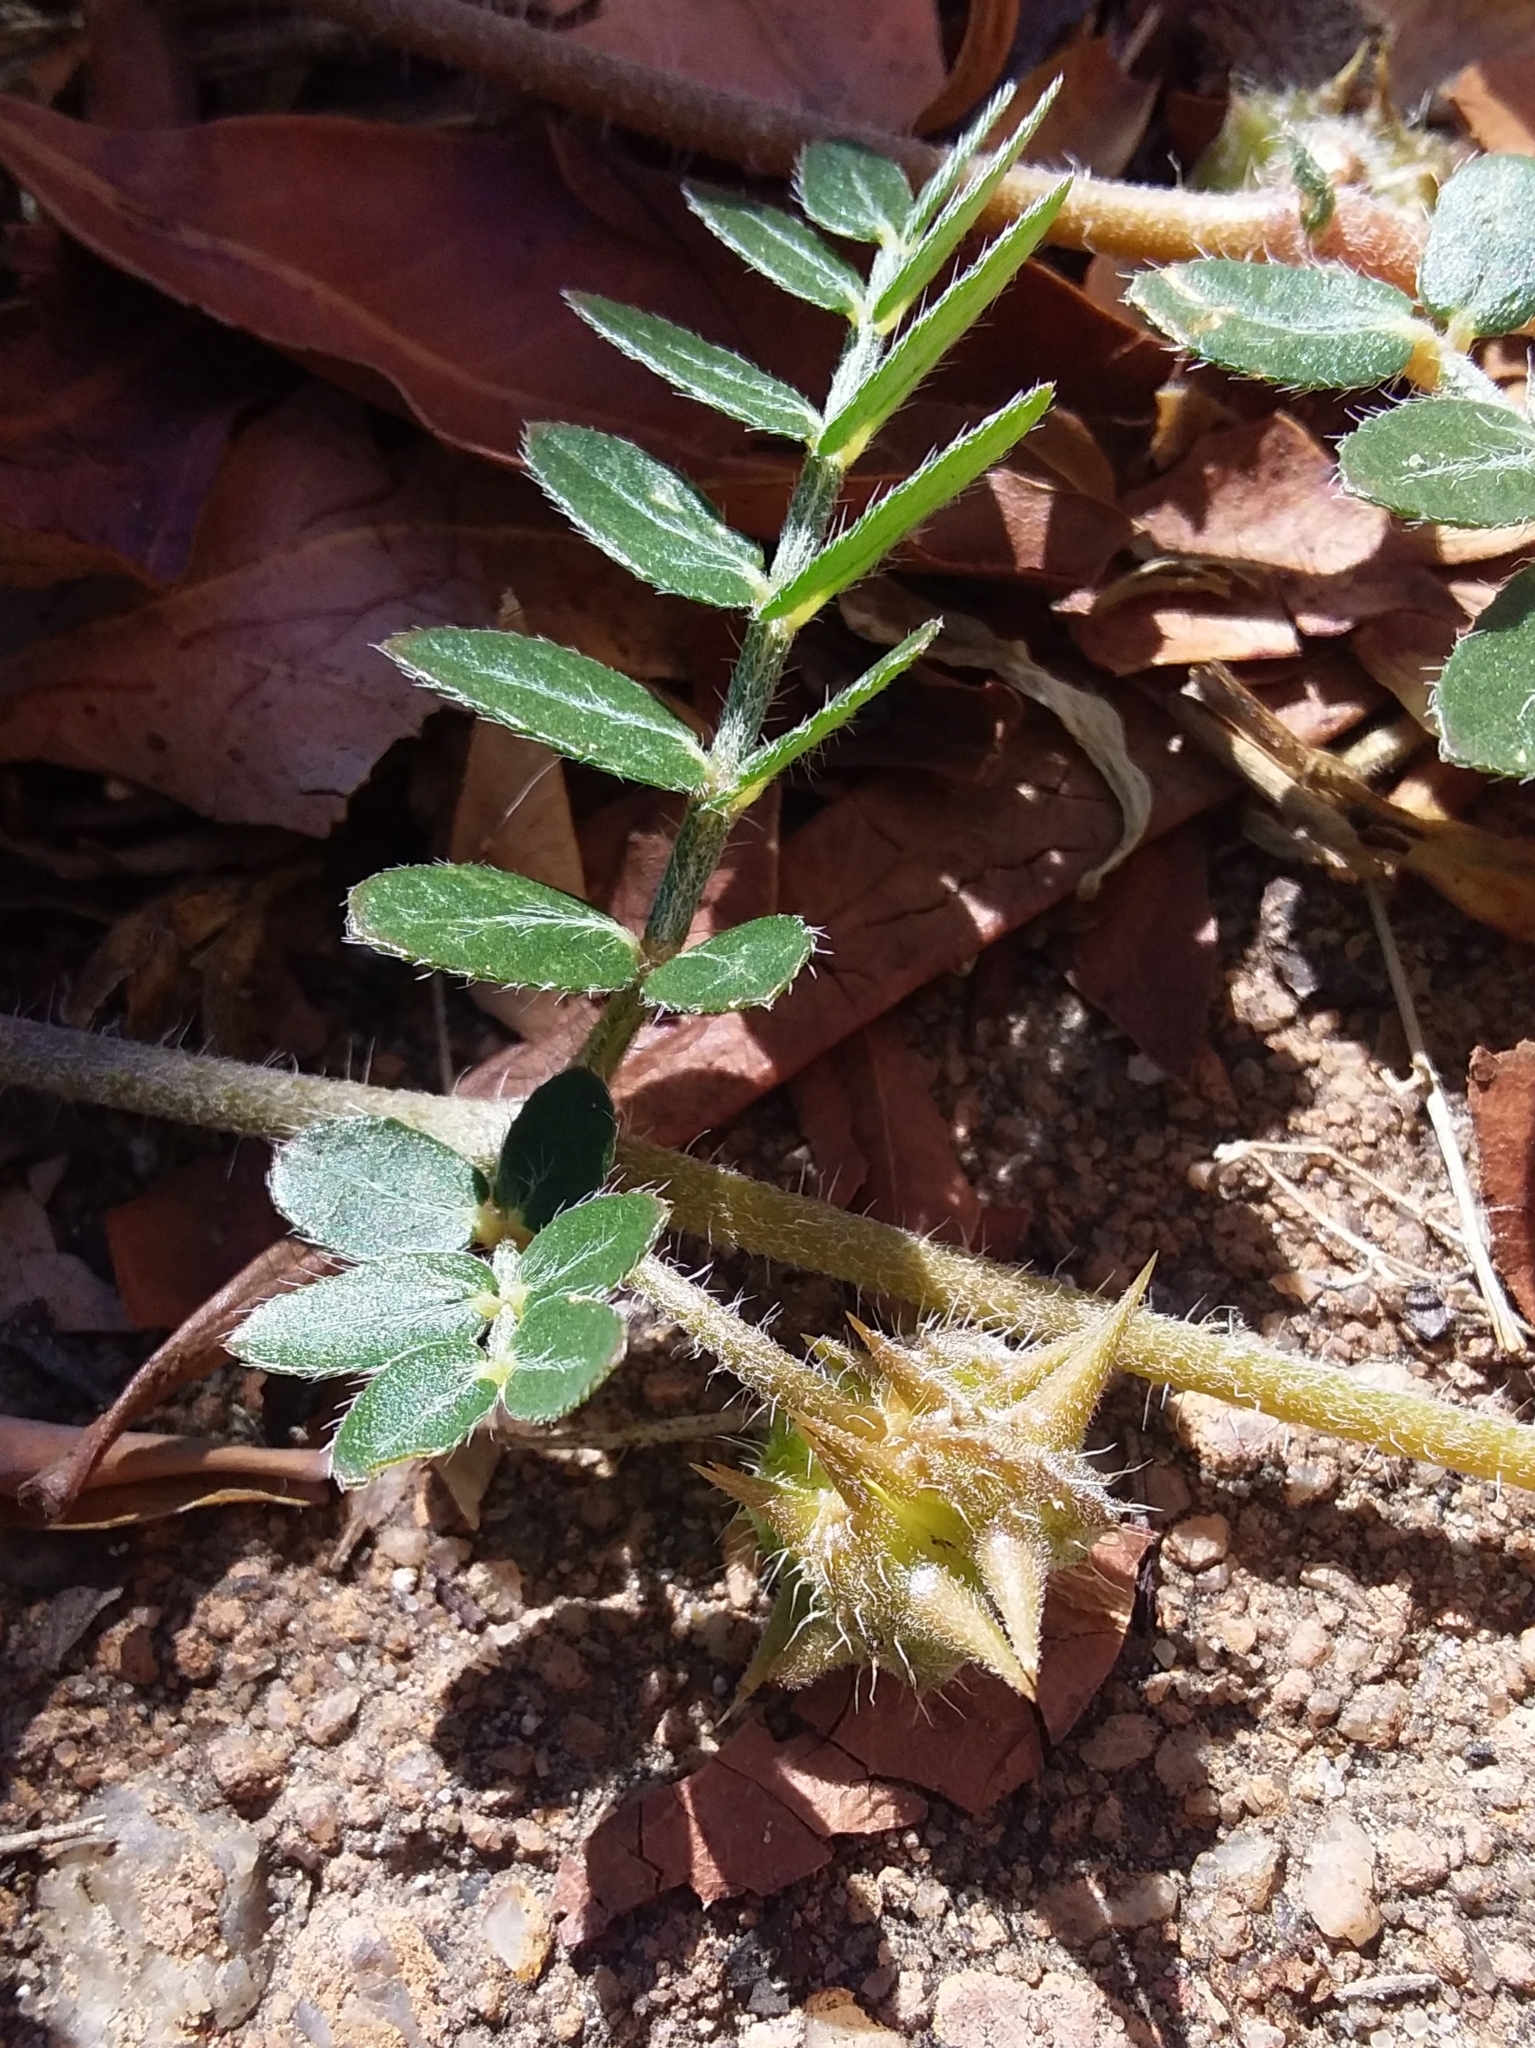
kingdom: Plantae
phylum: Tracheophyta
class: Magnoliopsida
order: Zygophyllales
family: Zygophyllaceae
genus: Tribulus
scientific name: Tribulus terrestris
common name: Puncturevine
